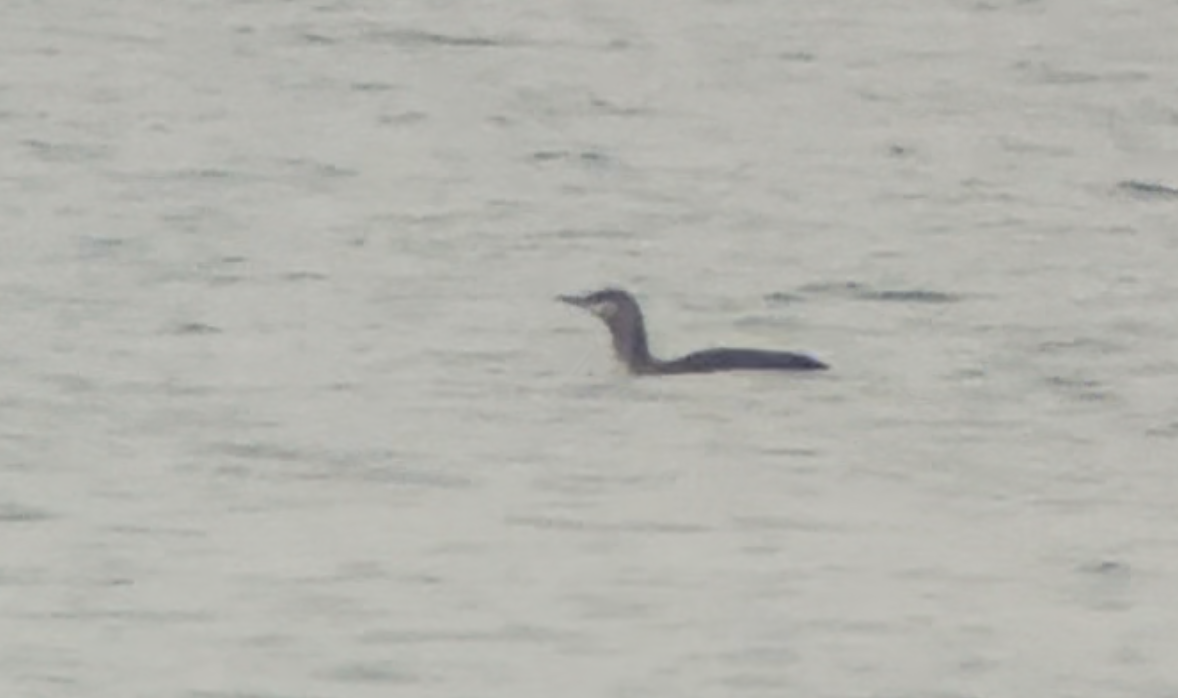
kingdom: Animalia
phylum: Chordata
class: Aves
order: Gaviiformes
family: Gaviidae
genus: Gavia
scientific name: Gavia stellata
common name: Red-throated loon
